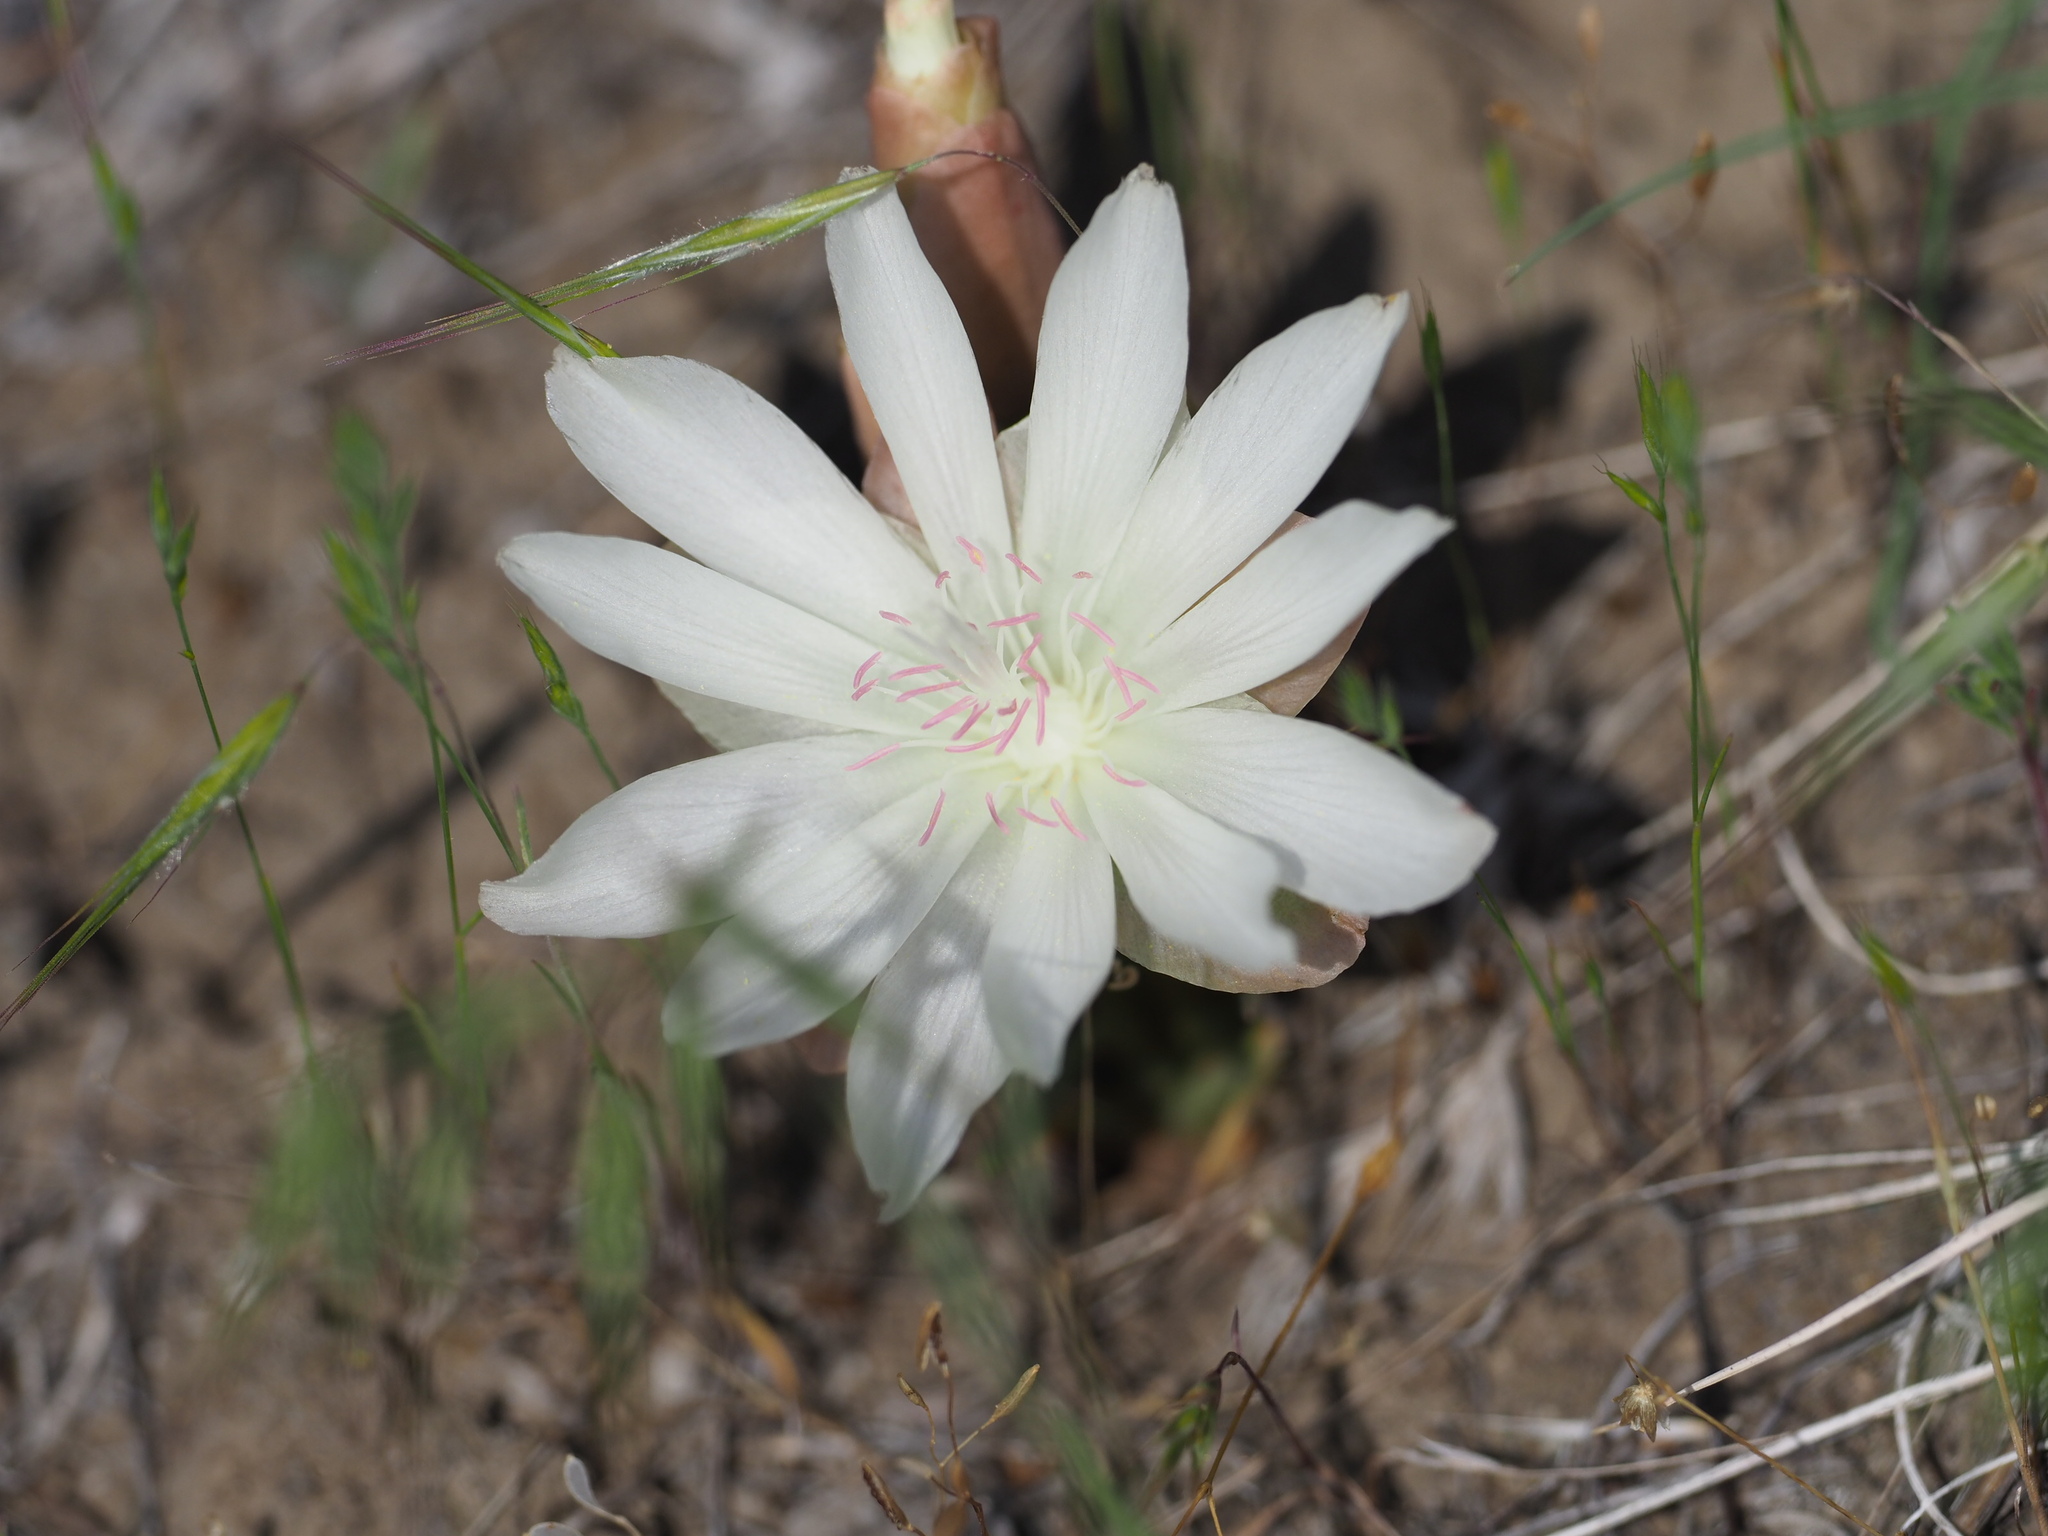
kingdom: Plantae
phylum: Tracheophyta
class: Magnoliopsida
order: Caryophyllales
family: Montiaceae
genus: Lewisia
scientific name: Lewisia rediviva
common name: Bitter-root
